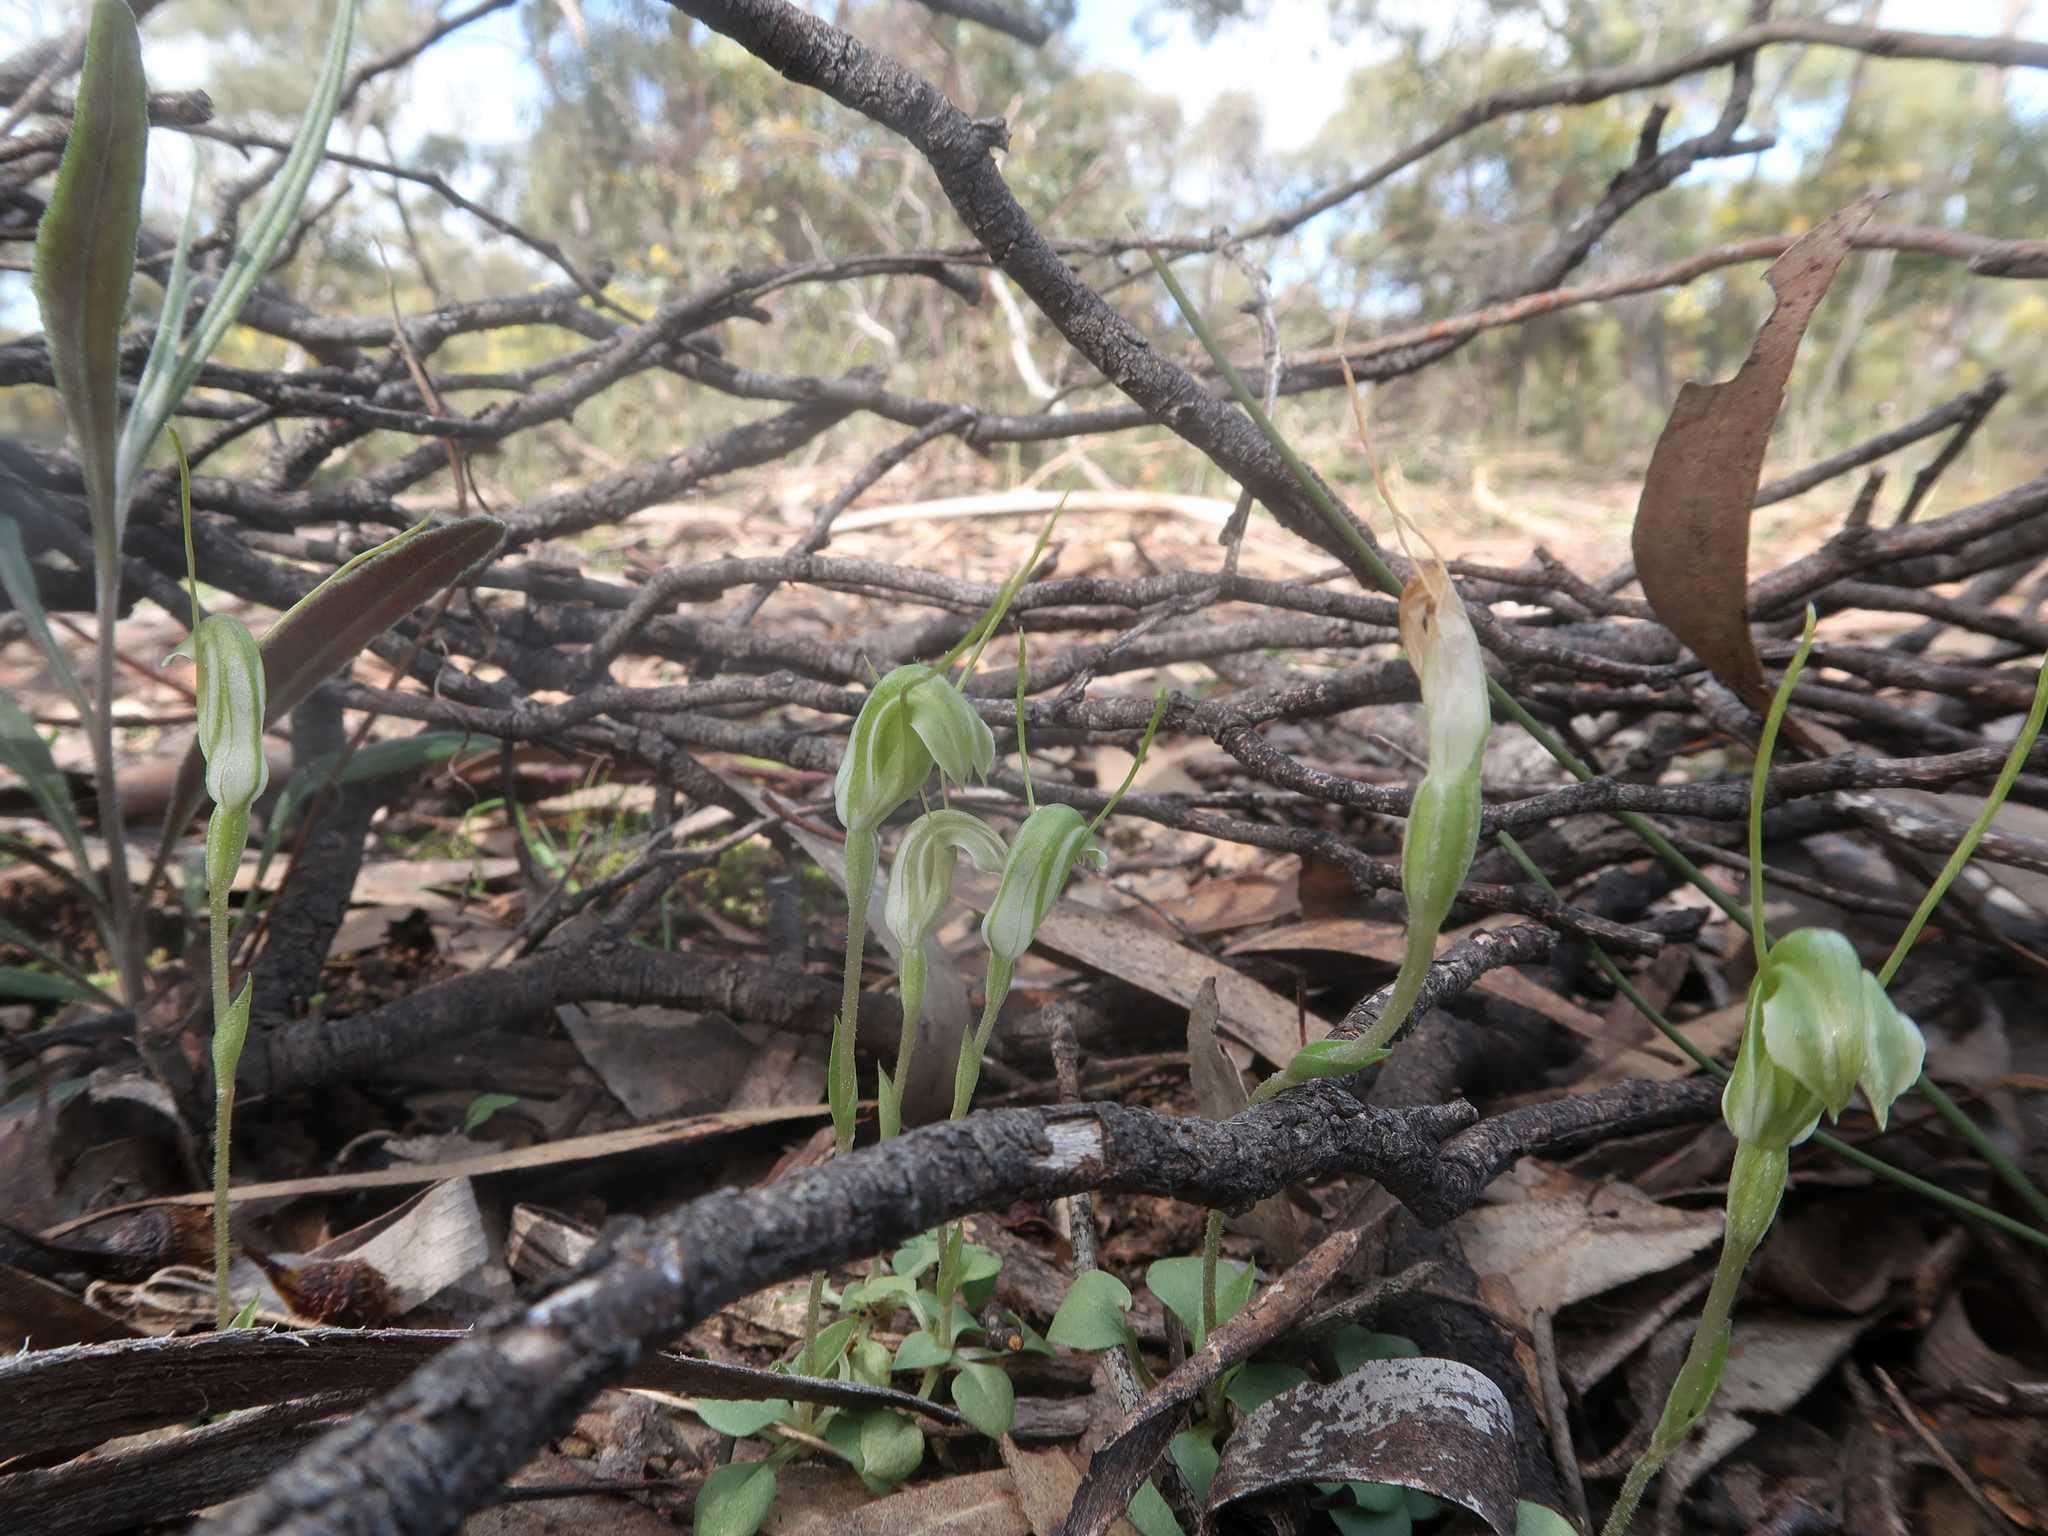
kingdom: Plantae
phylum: Tracheophyta
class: Liliopsida
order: Asparagales
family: Orchidaceae
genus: Pterostylis
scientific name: Pterostylis nana
